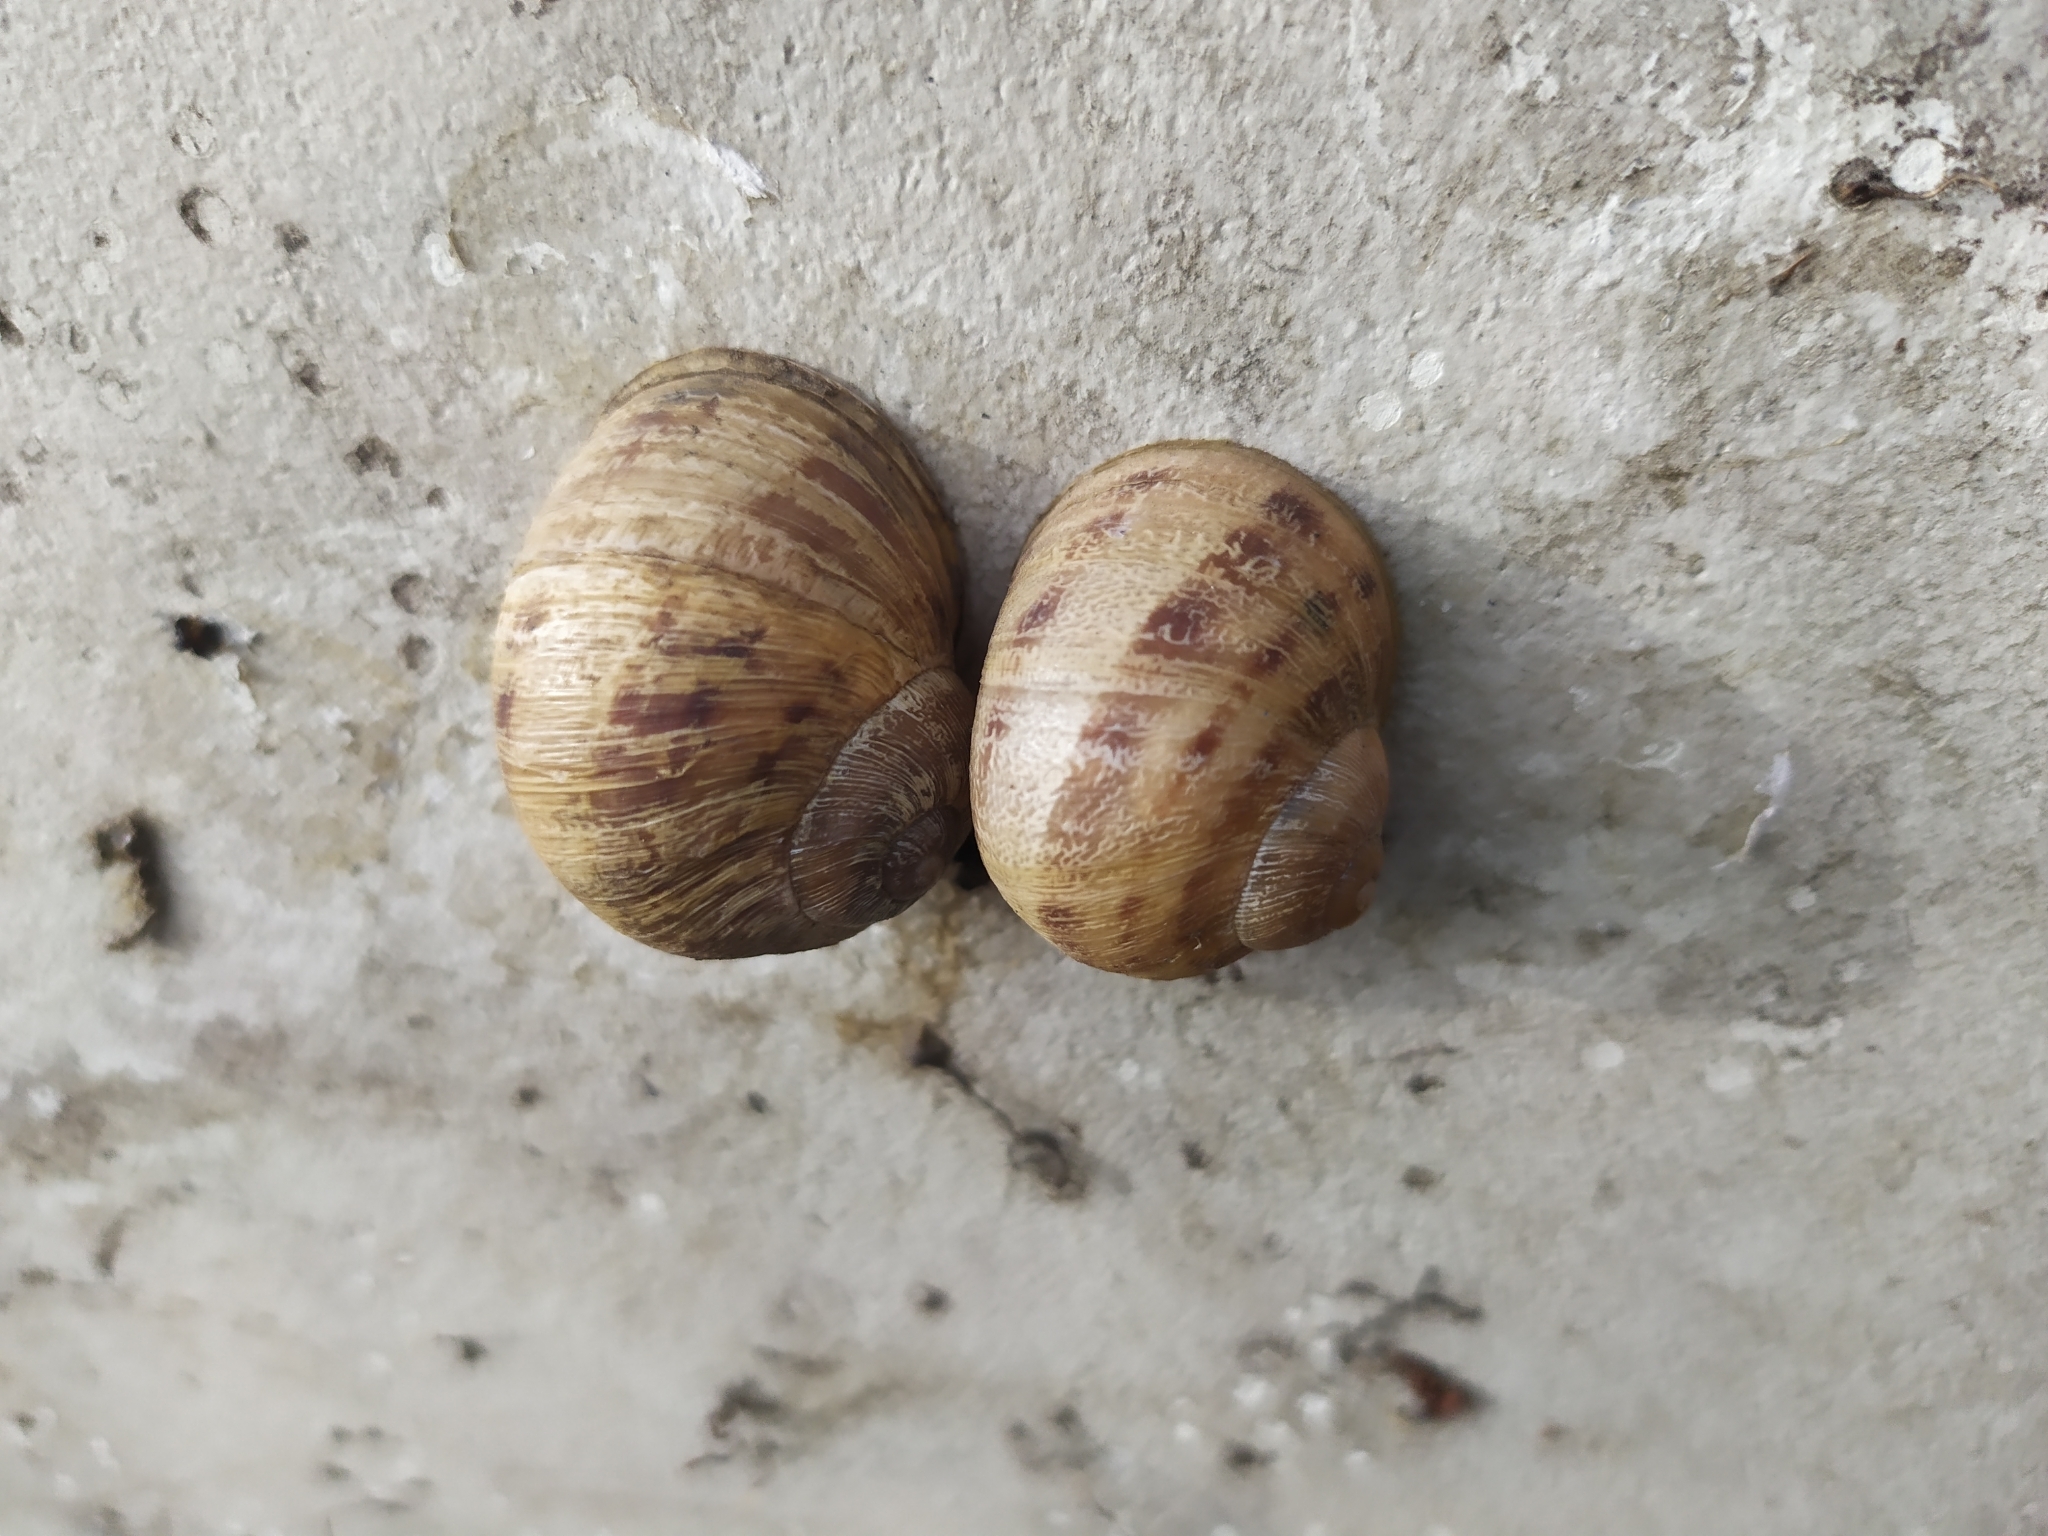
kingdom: Animalia
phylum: Mollusca
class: Gastropoda
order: Stylommatophora
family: Helicidae
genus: Cornu
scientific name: Cornu aspersum
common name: Brown garden snail
